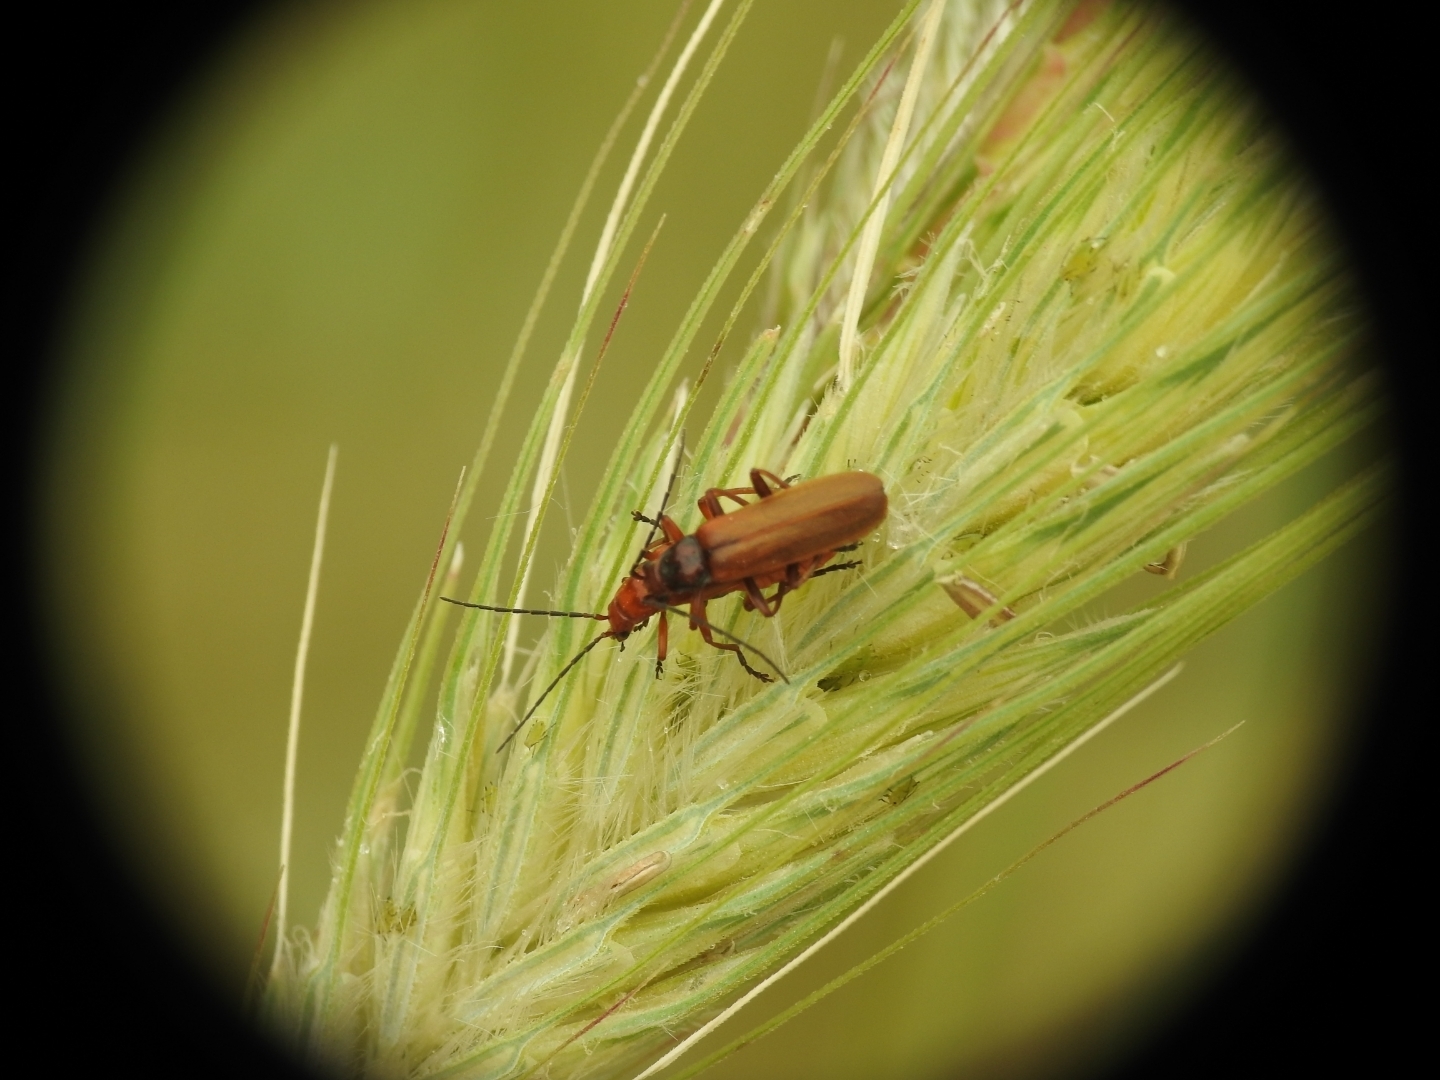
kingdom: Animalia
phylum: Arthropoda
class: Insecta
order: Coleoptera
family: Cantharidae
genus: Rhagonycha
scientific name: Rhagonycha nigritarsis
